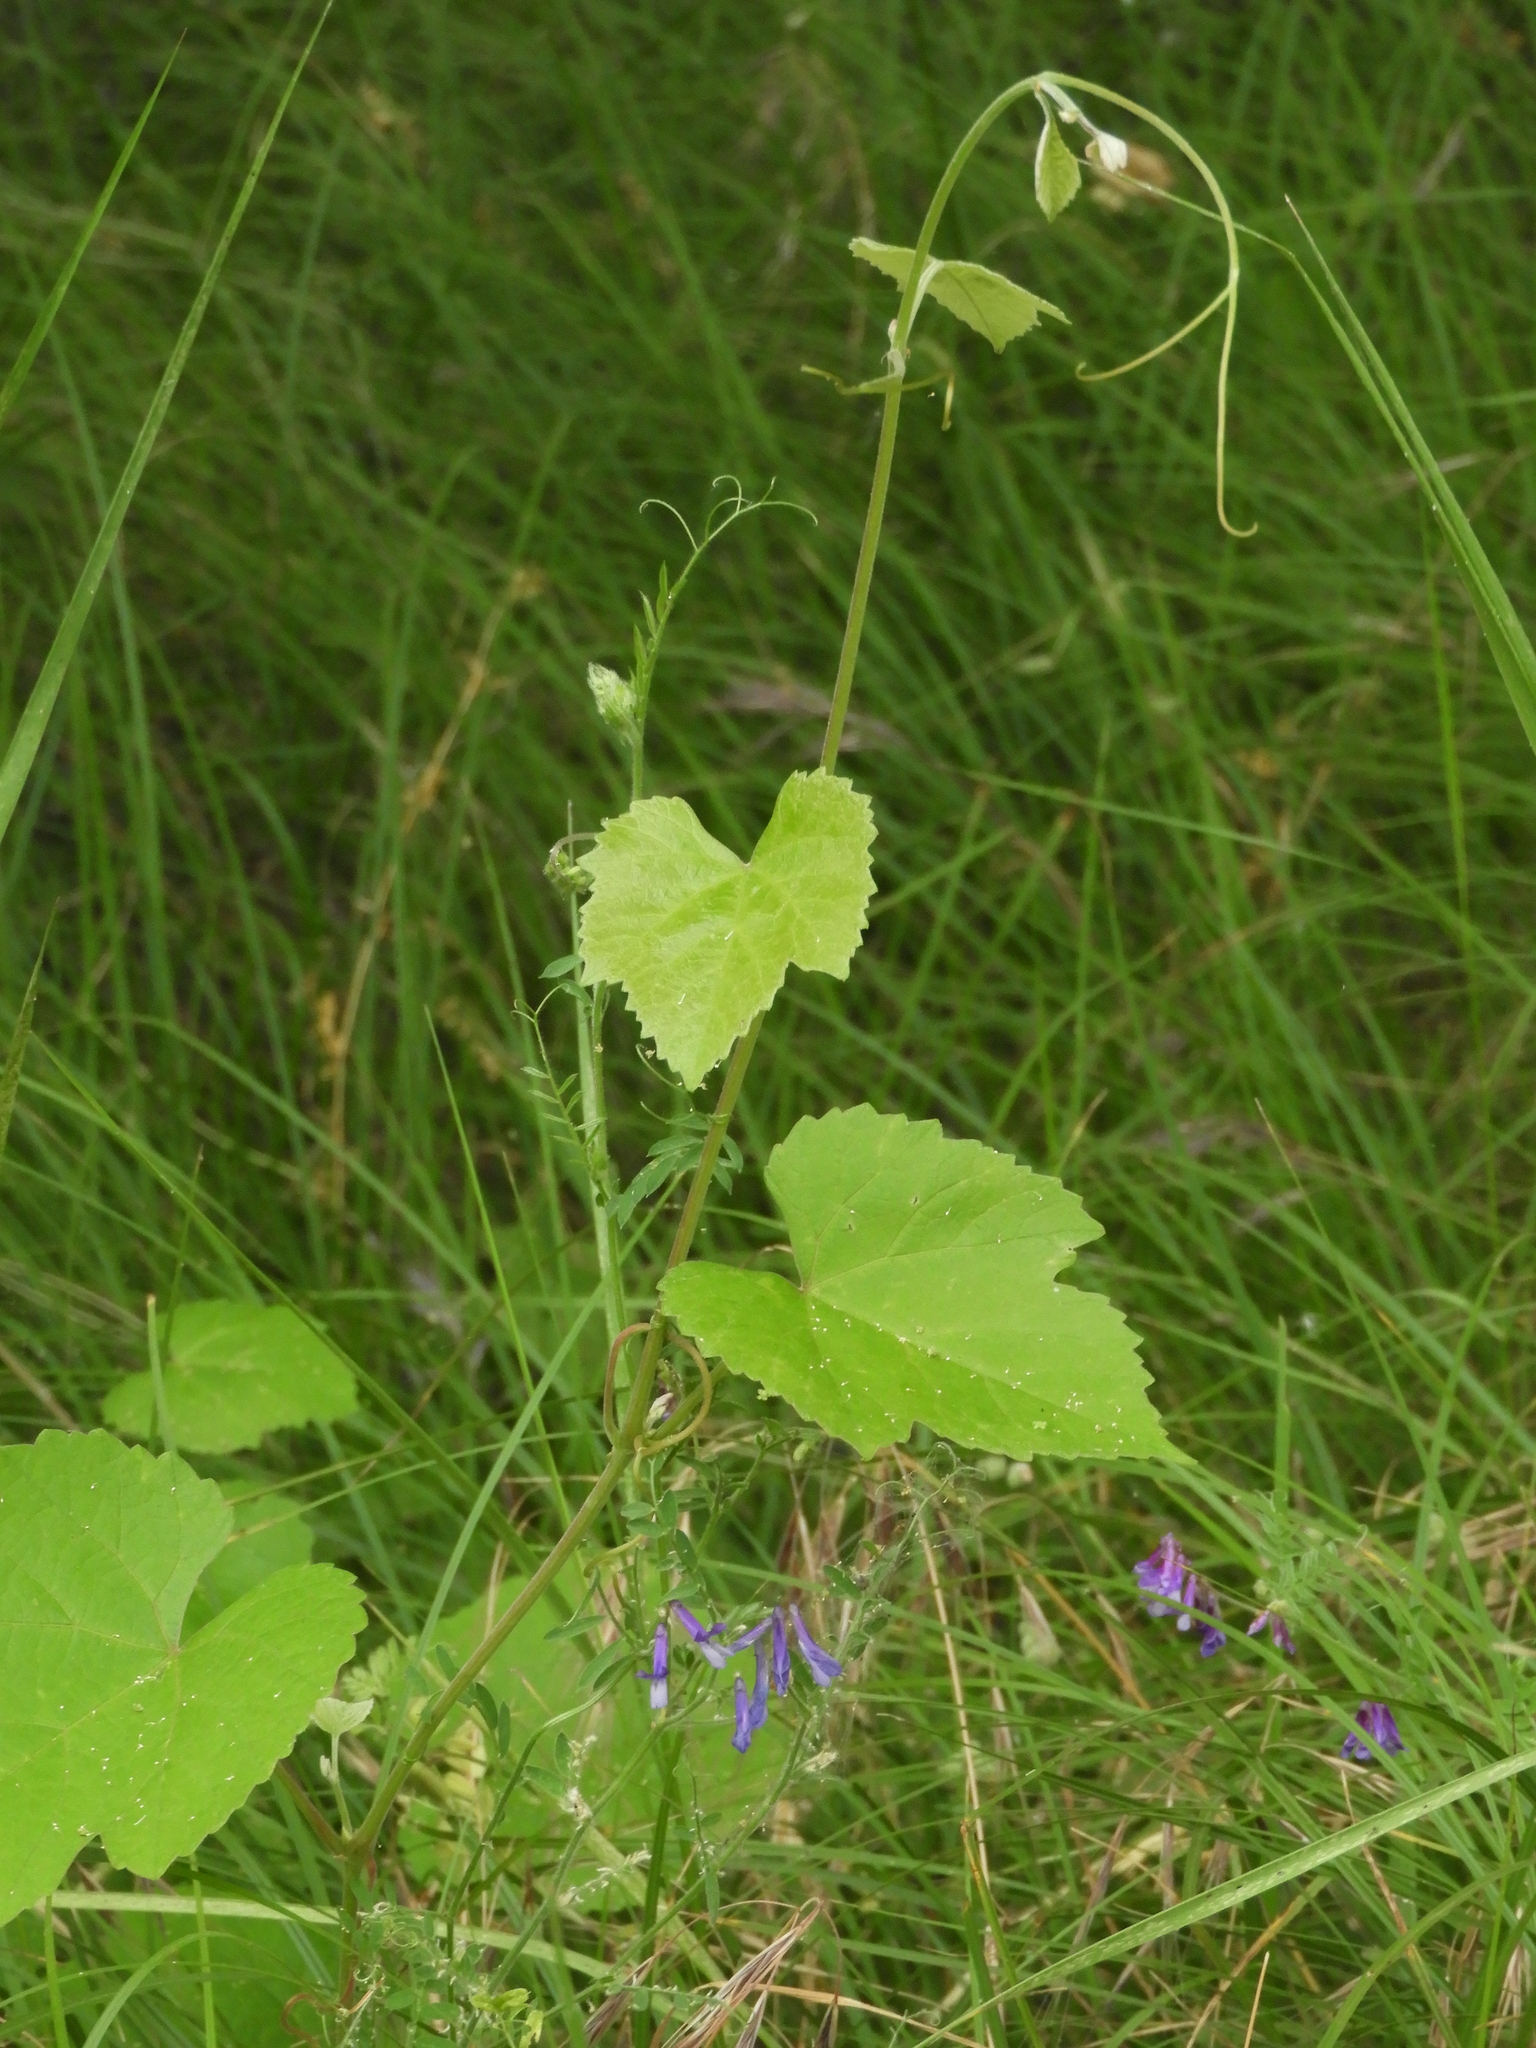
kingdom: Plantae
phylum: Tracheophyta
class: Magnoliopsida
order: Vitales
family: Vitaceae
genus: Vitis
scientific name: Vitis californica
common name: California wild grape
